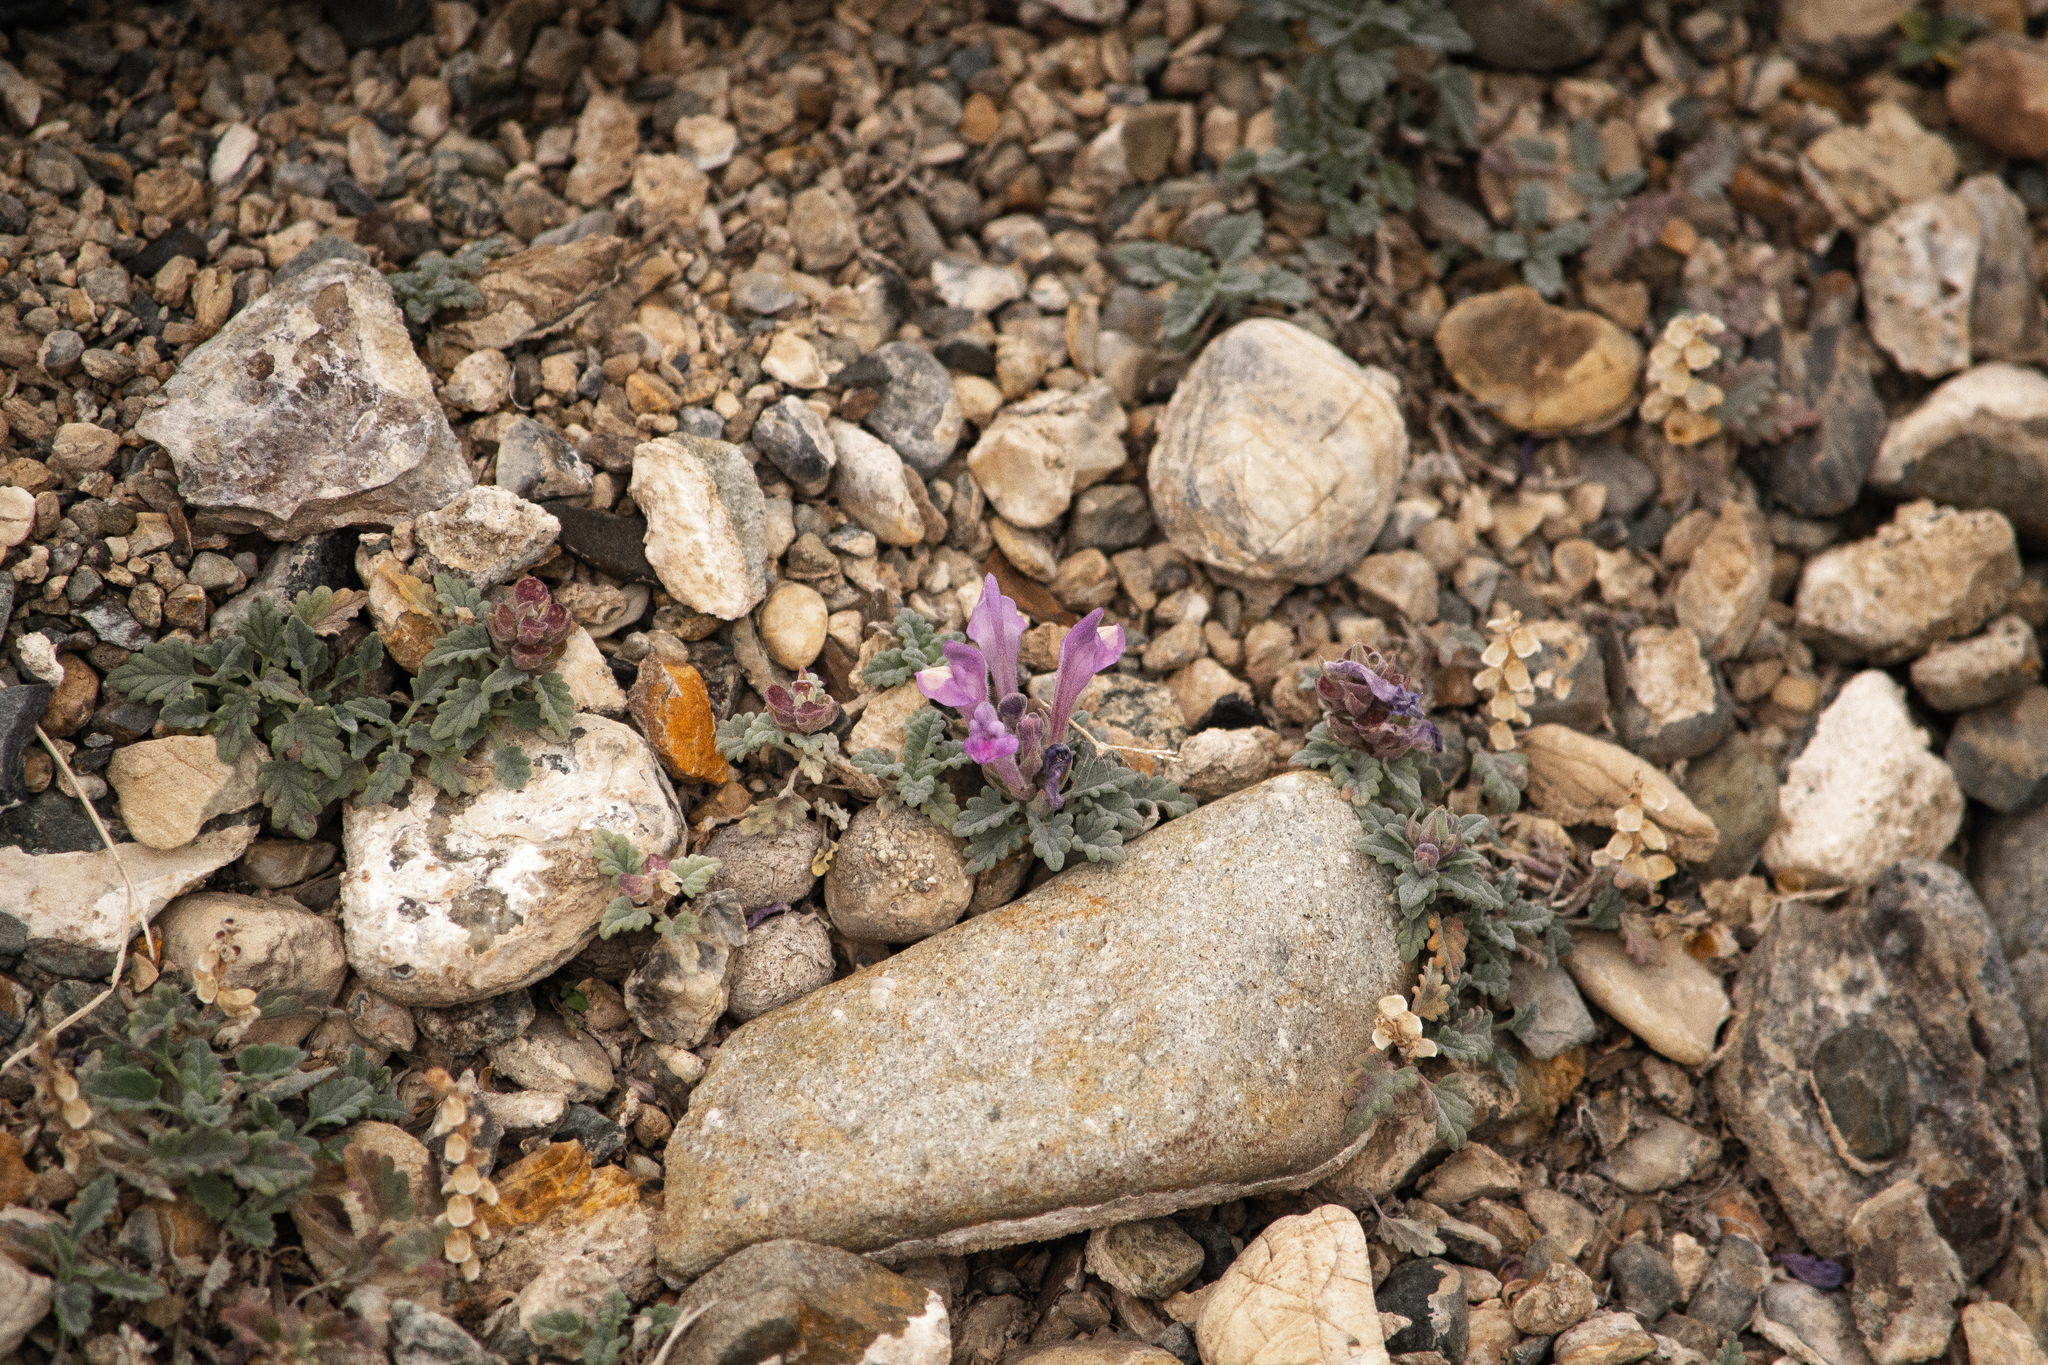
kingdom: Plantae
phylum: Tracheophyta
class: Magnoliopsida
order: Lamiales
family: Lamiaceae
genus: Scutellaria
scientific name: Scutellaria grandiflora
